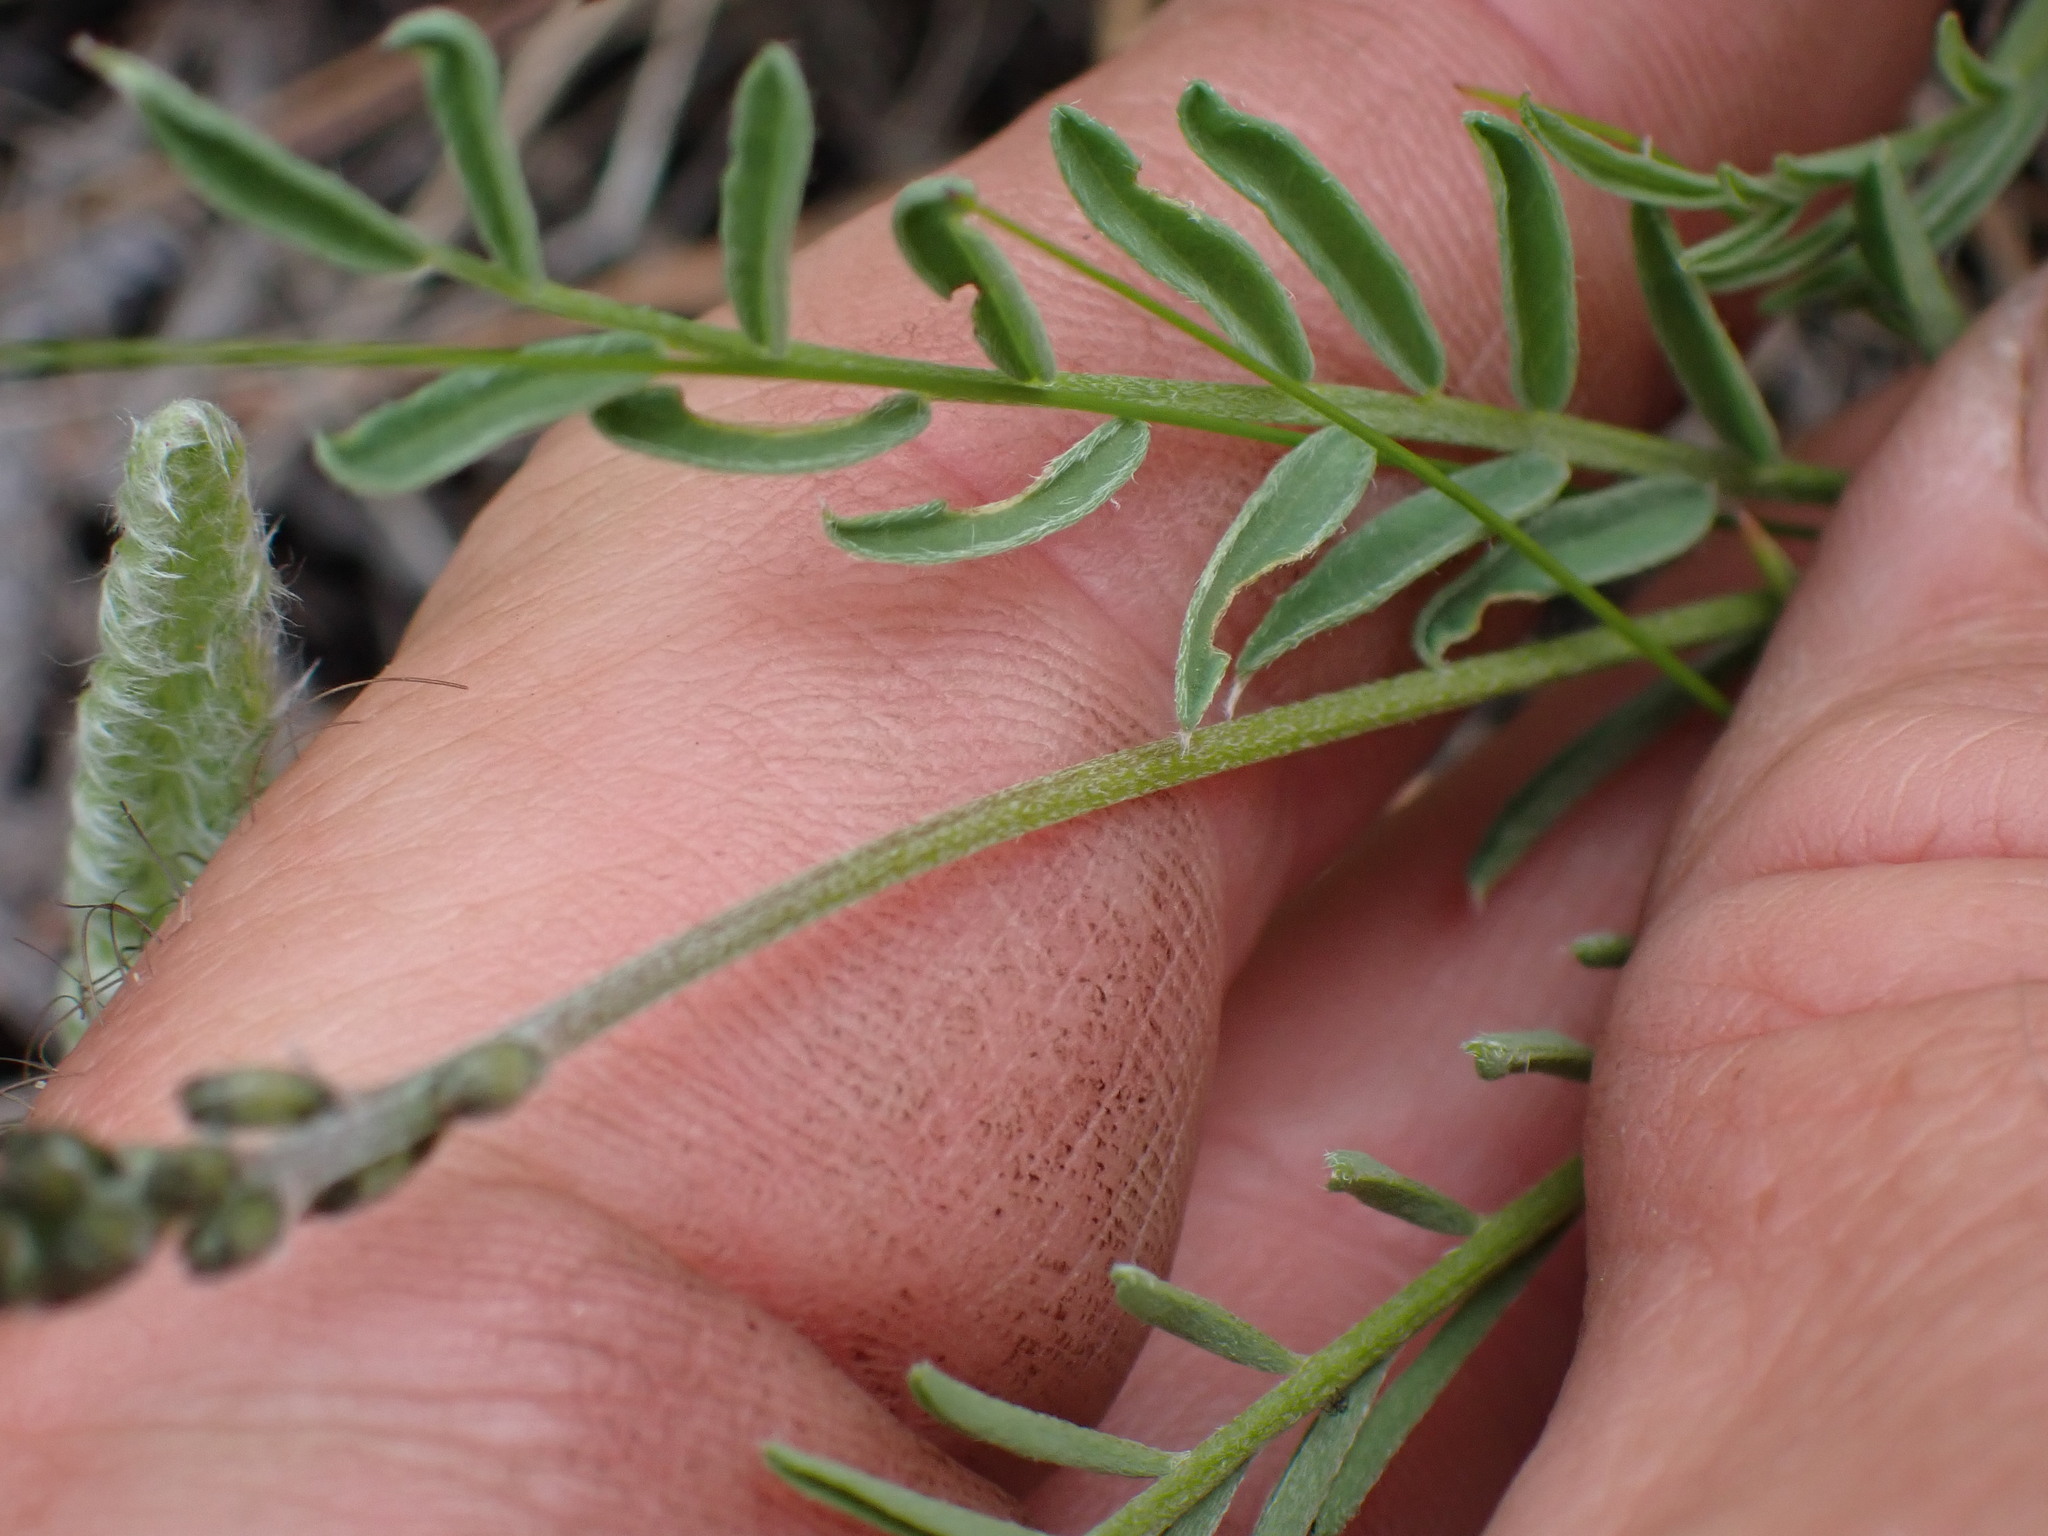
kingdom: Plantae
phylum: Tracheophyta
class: Magnoliopsida
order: Fabales
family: Fabaceae
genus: Astragalus
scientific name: Astragalus miser
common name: Timber milkvetch
